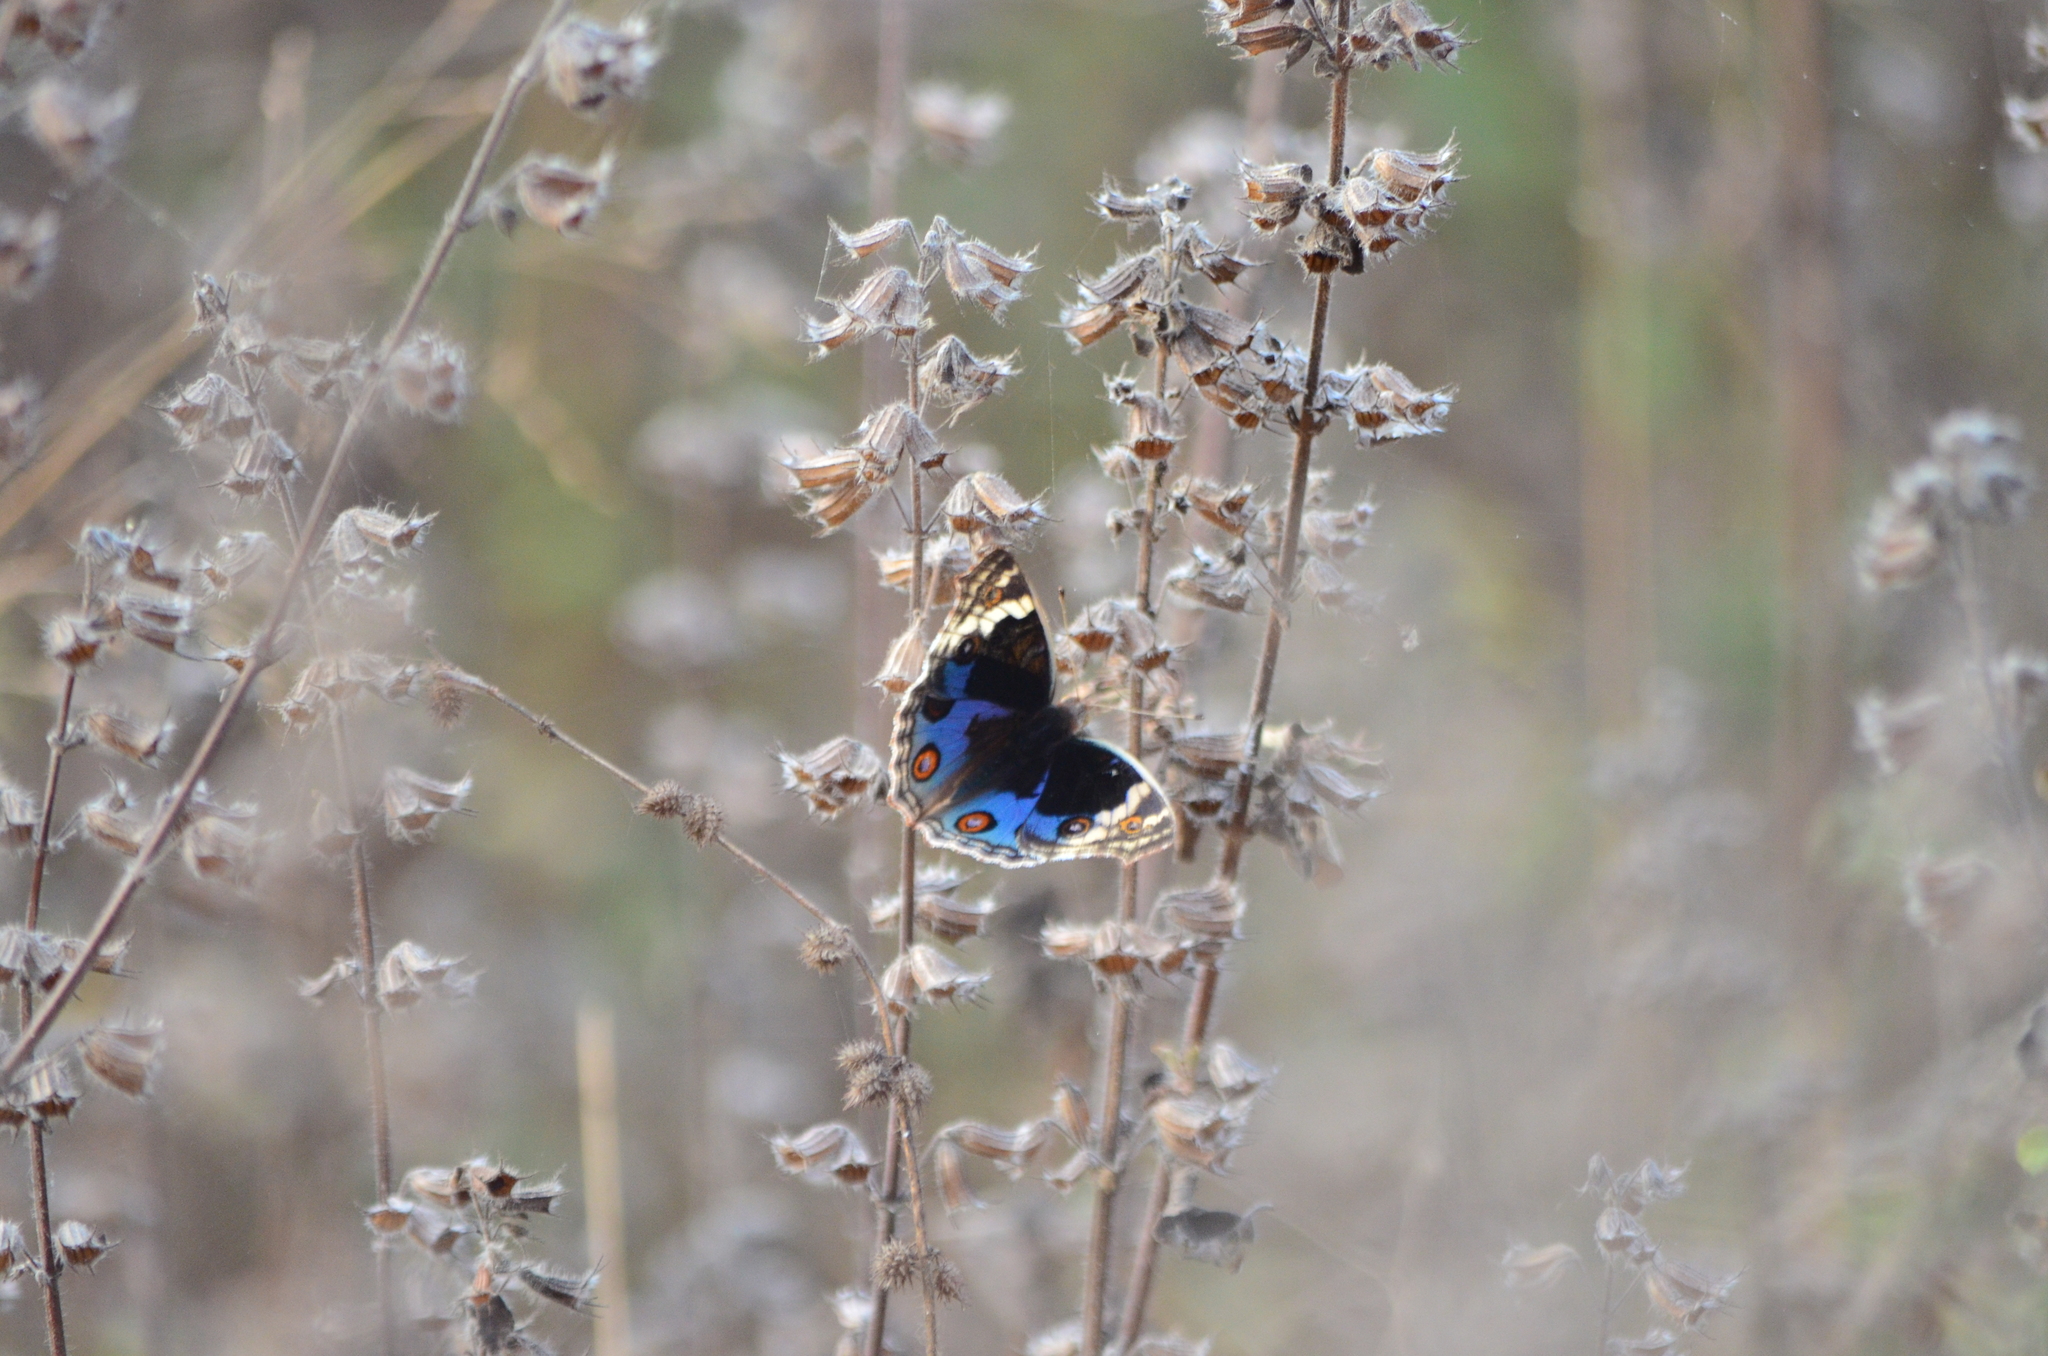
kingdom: Animalia
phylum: Arthropoda
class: Insecta
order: Lepidoptera
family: Nymphalidae
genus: Junonia
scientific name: Junonia orithya
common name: Blue pansy
